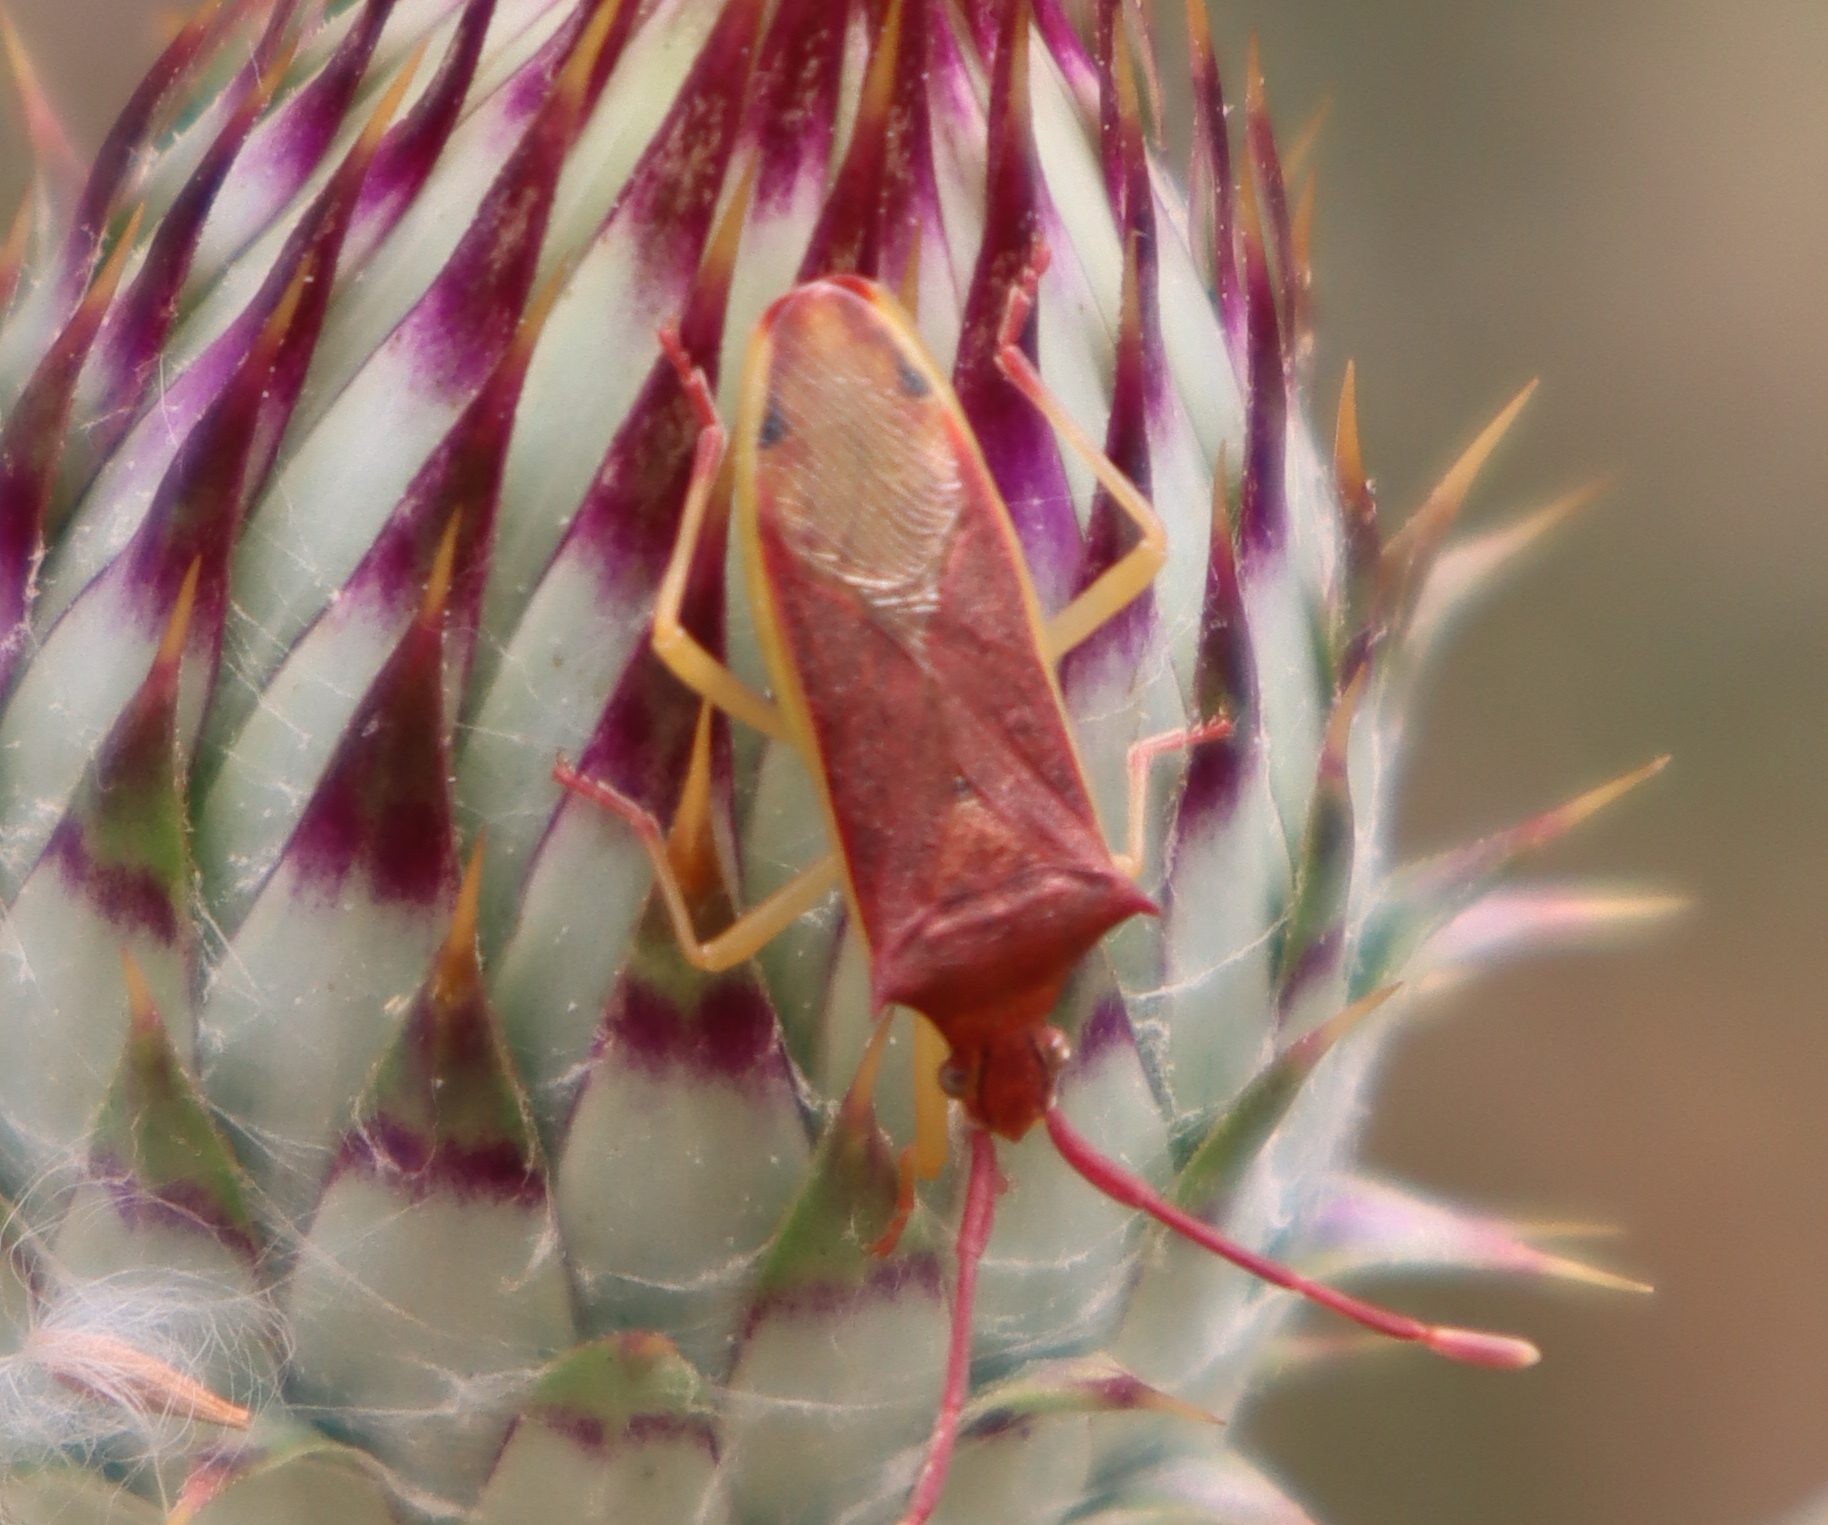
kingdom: Animalia
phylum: Arthropoda
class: Insecta
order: Hemiptera
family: Coreidae
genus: Plinachtus
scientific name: Plinachtus imitator
